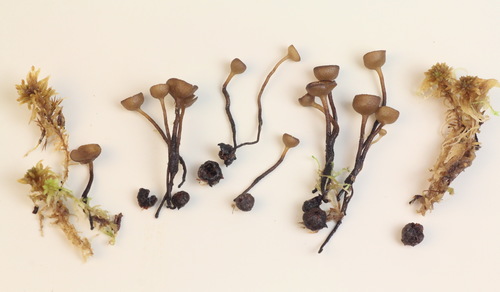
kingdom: Fungi
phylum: Ascomycota
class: Leotiomycetes
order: Helotiales
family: Sclerotiniaceae
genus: Monilinia
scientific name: Monilinia oxycocci
